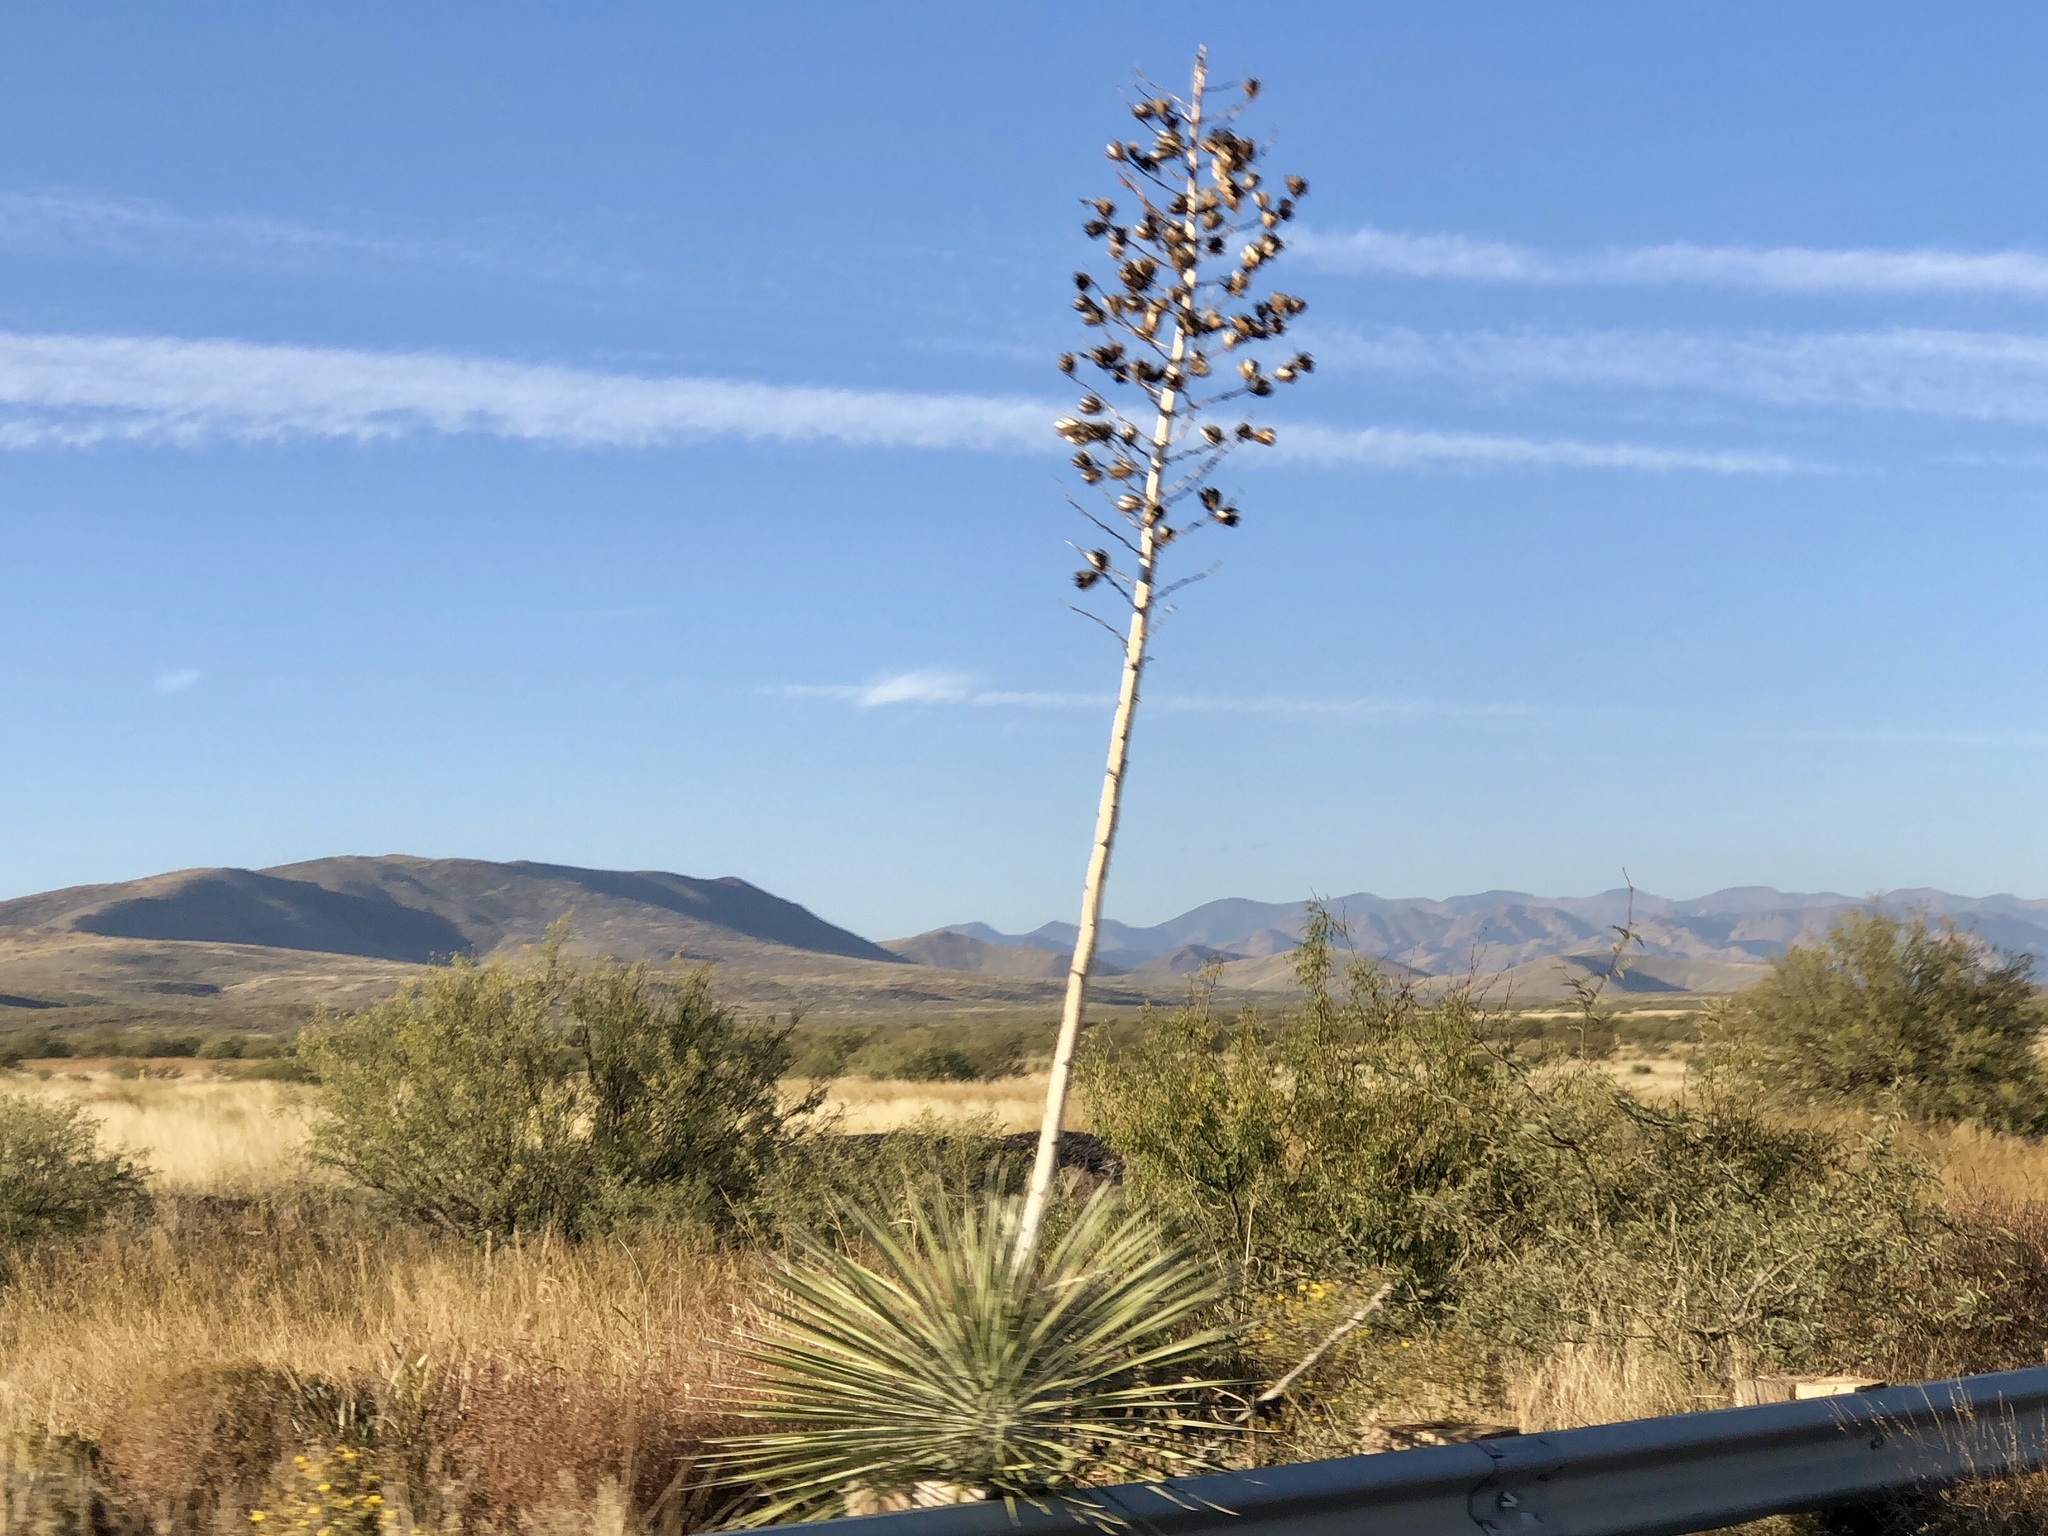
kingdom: Plantae
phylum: Tracheophyta
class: Liliopsida
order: Asparagales
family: Asparagaceae
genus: Yucca
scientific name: Yucca elata
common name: Palmella
